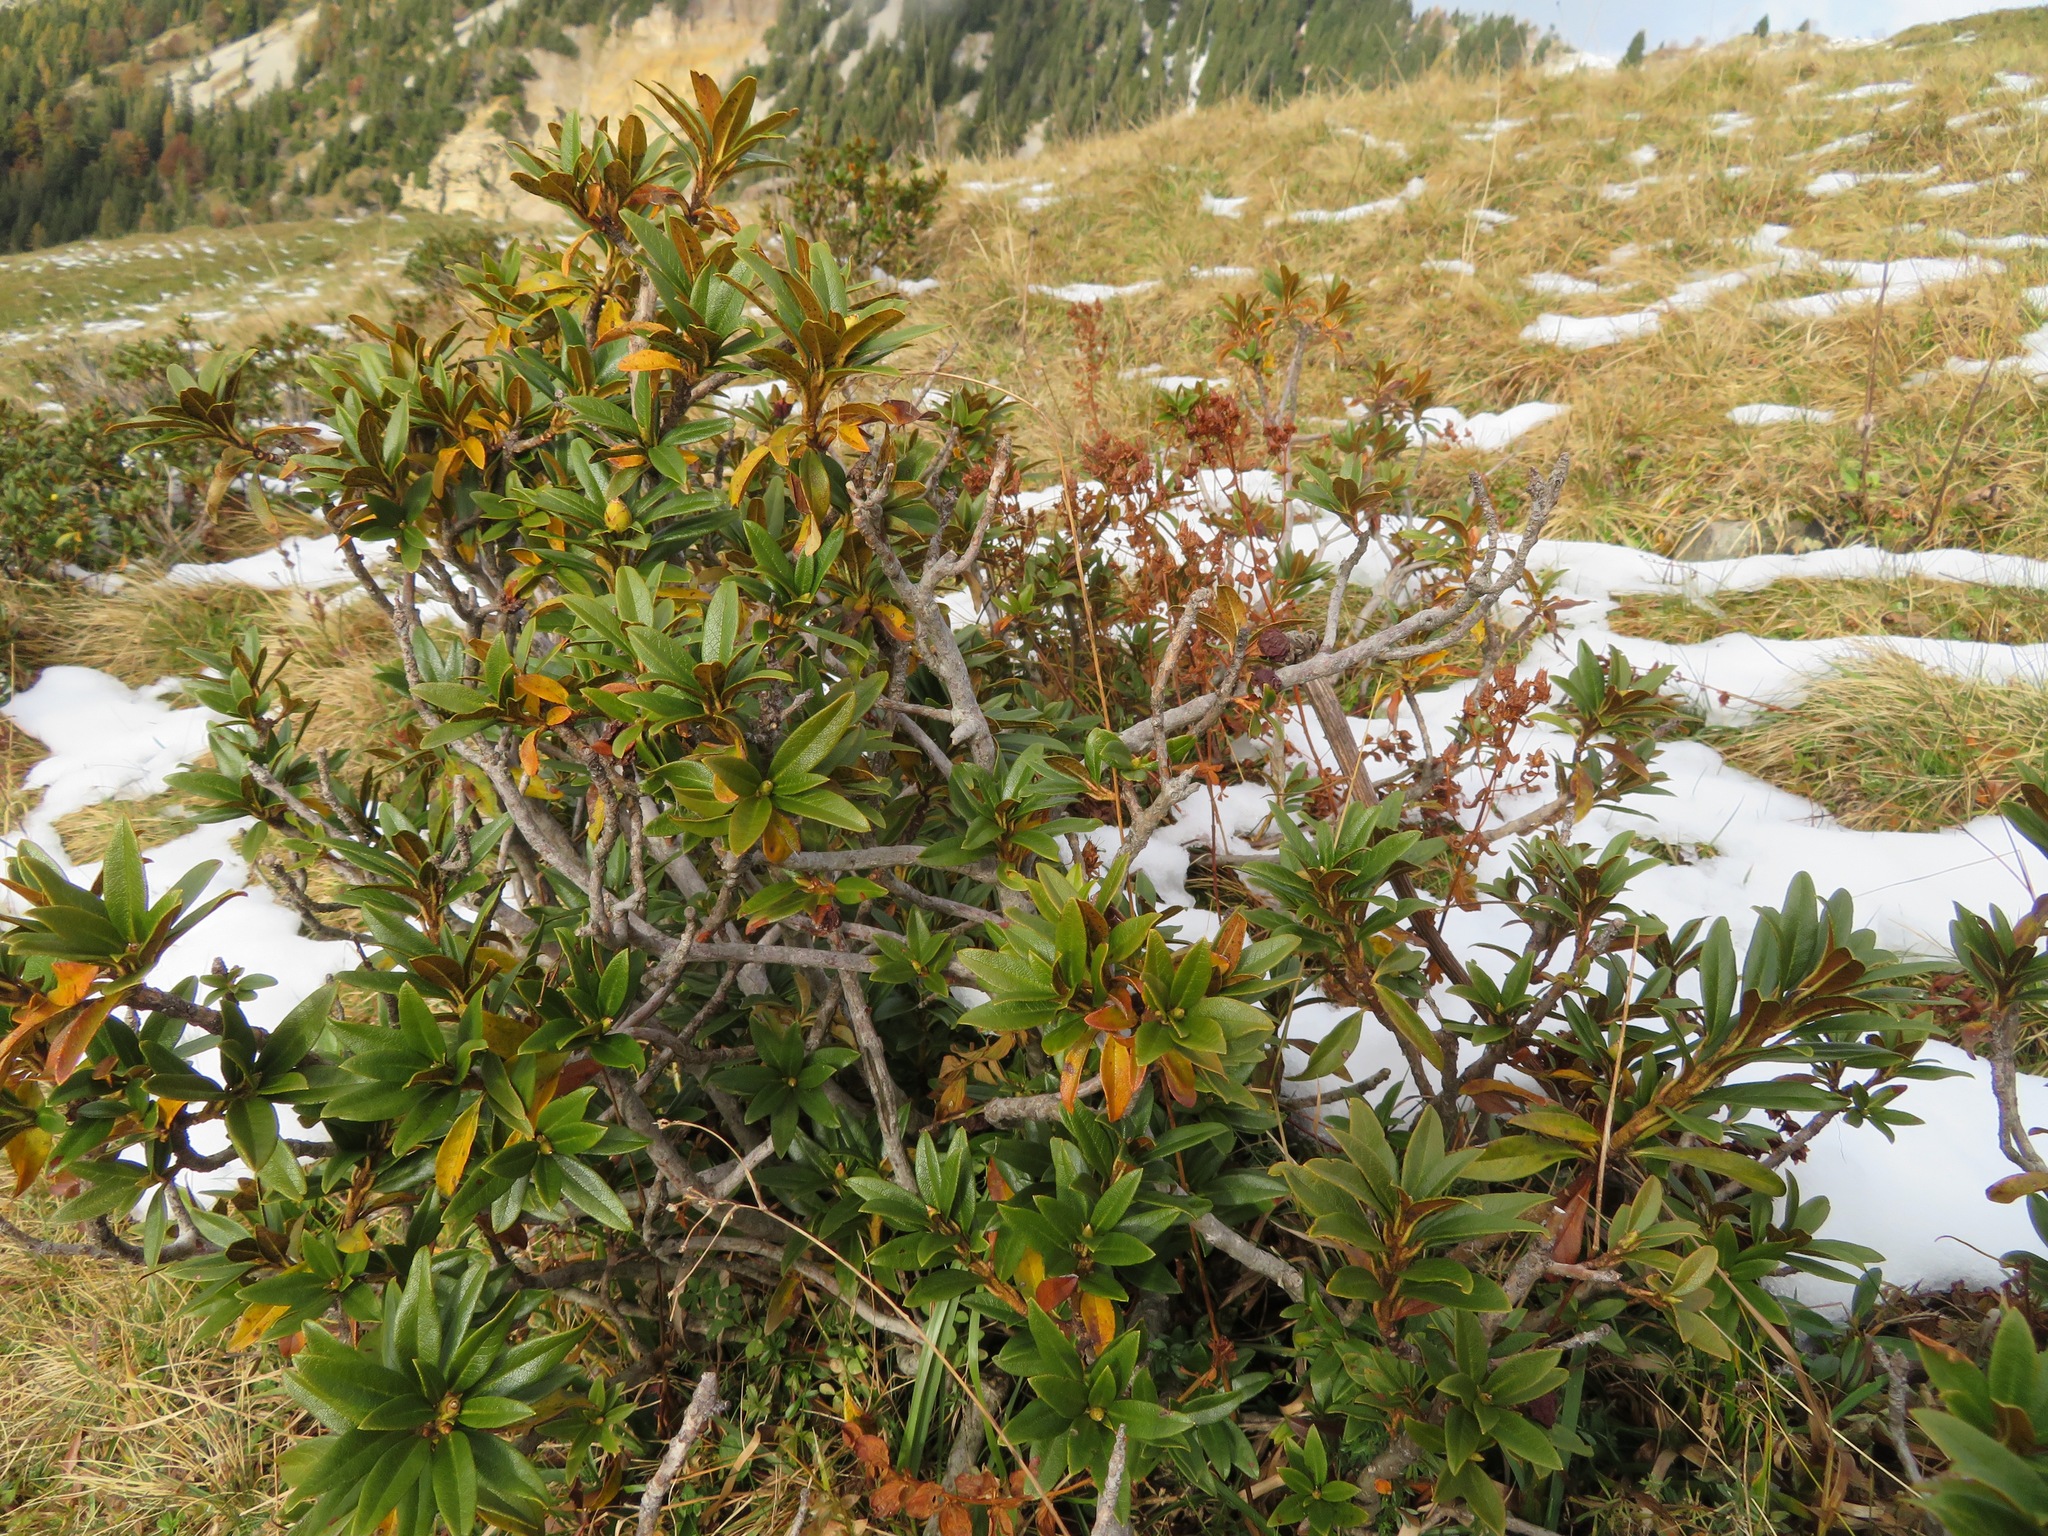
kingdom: Plantae
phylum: Tracheophyta
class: Magnoliopsida
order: Ericales
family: Ericaceae
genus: Rhododendron
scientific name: Rhododendron ferrugineum
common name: Alpenrose
